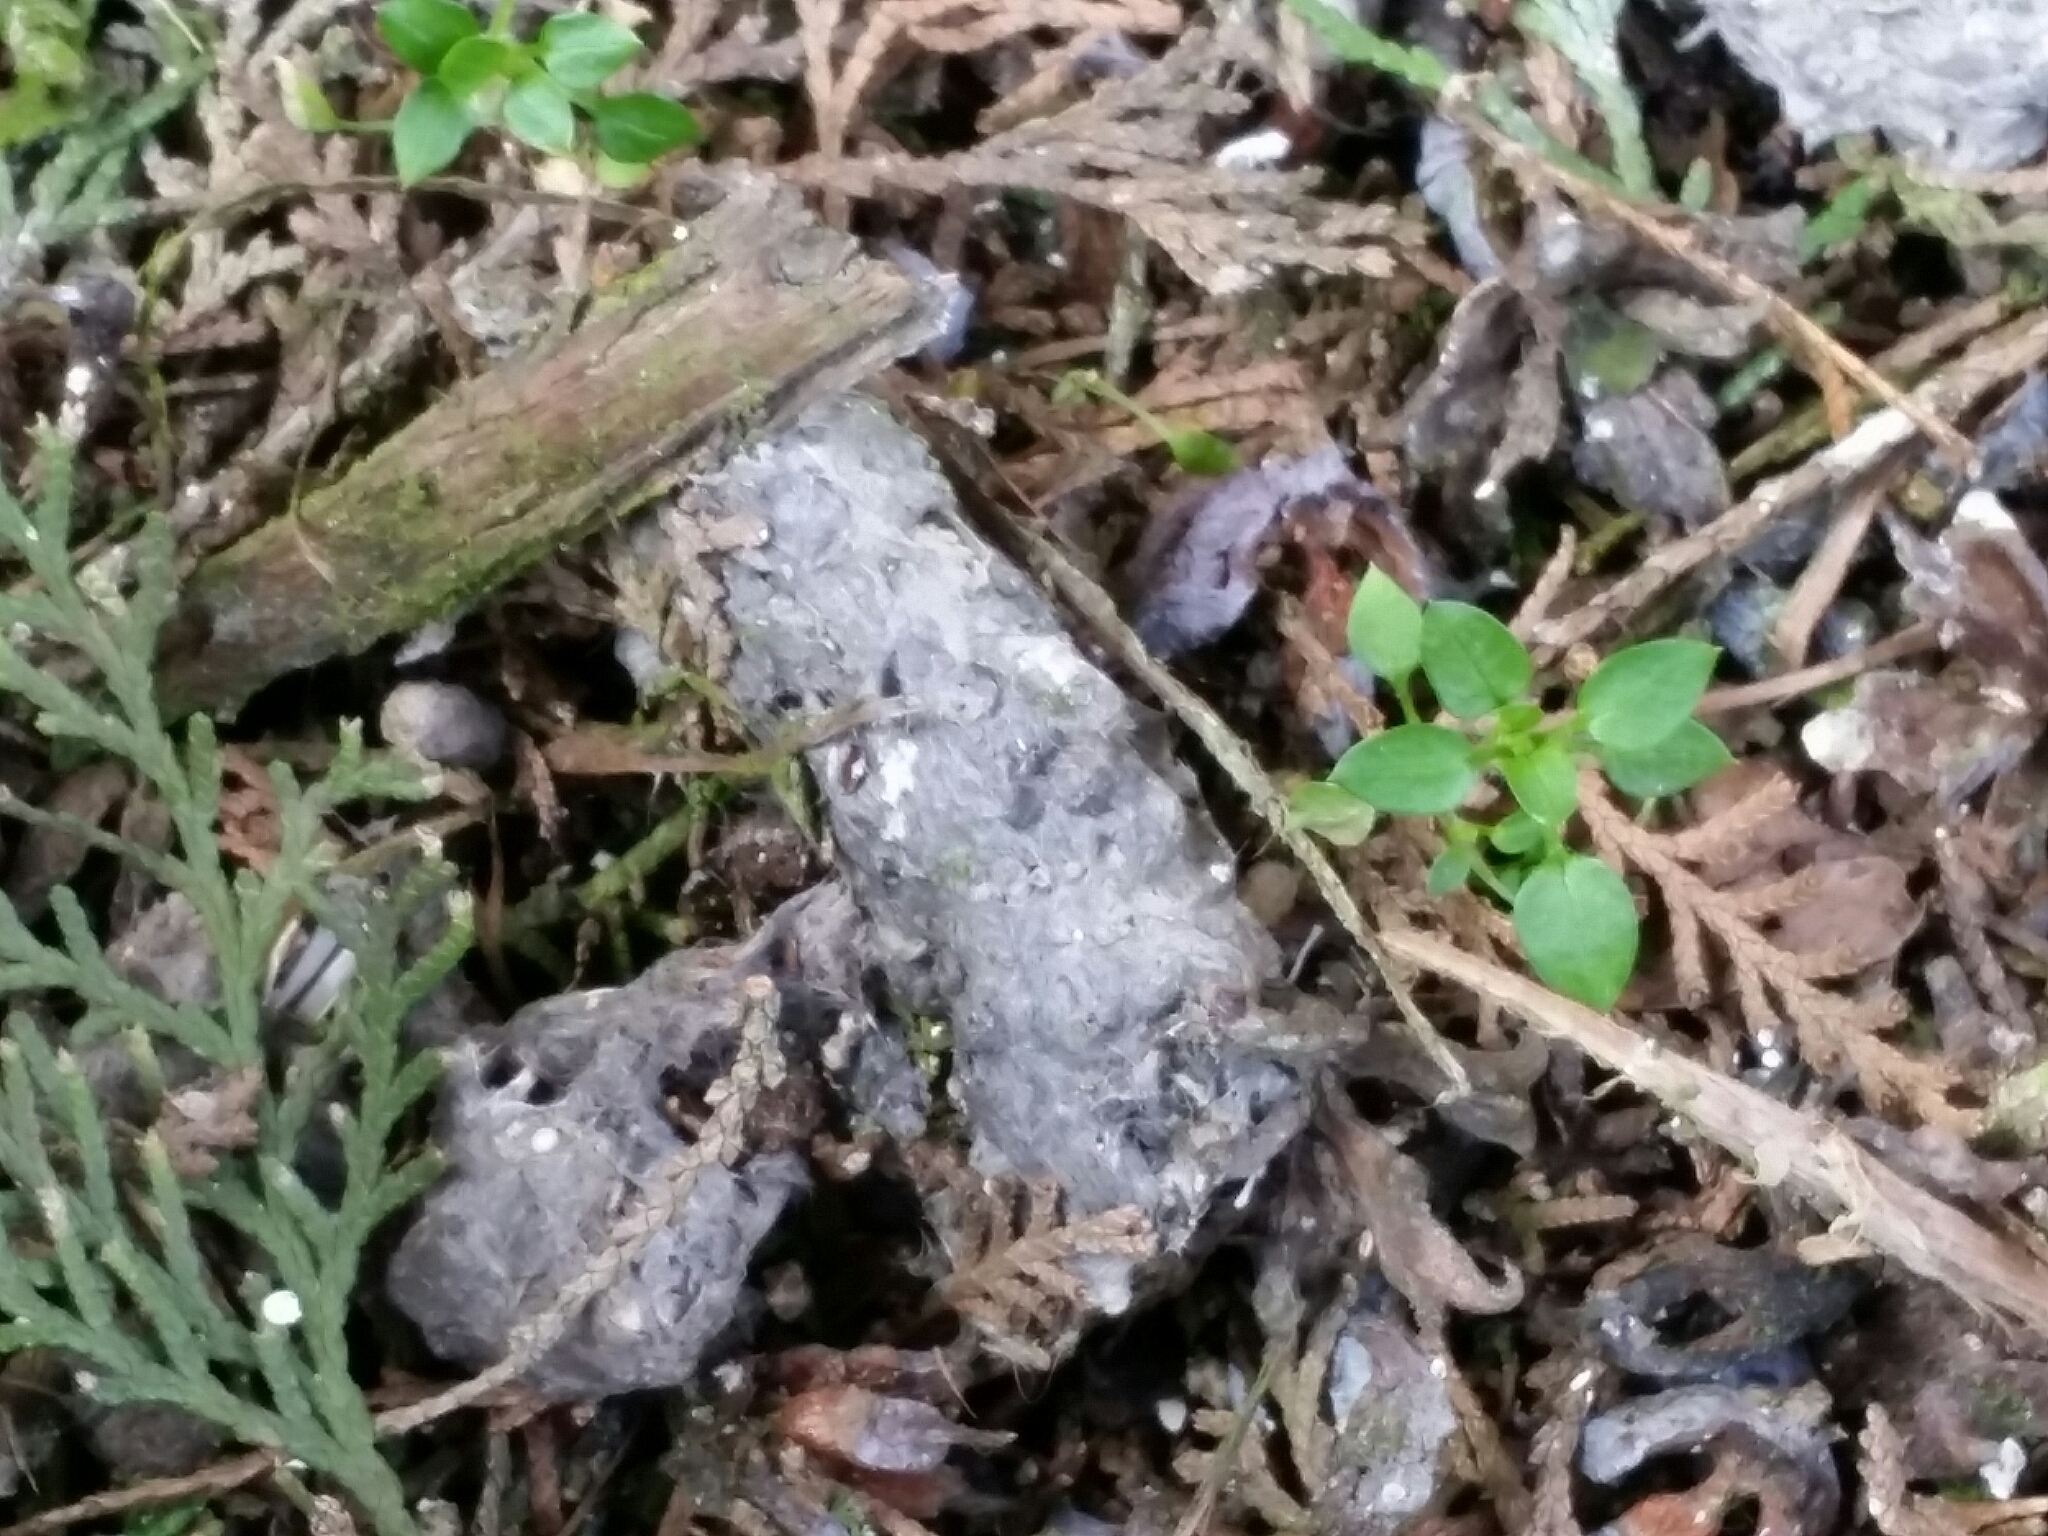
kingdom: Animalia
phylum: Chordata
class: Aves
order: Strigiformes
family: Strigidae
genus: Asio
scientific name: Asio otus
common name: Long-eared owl
